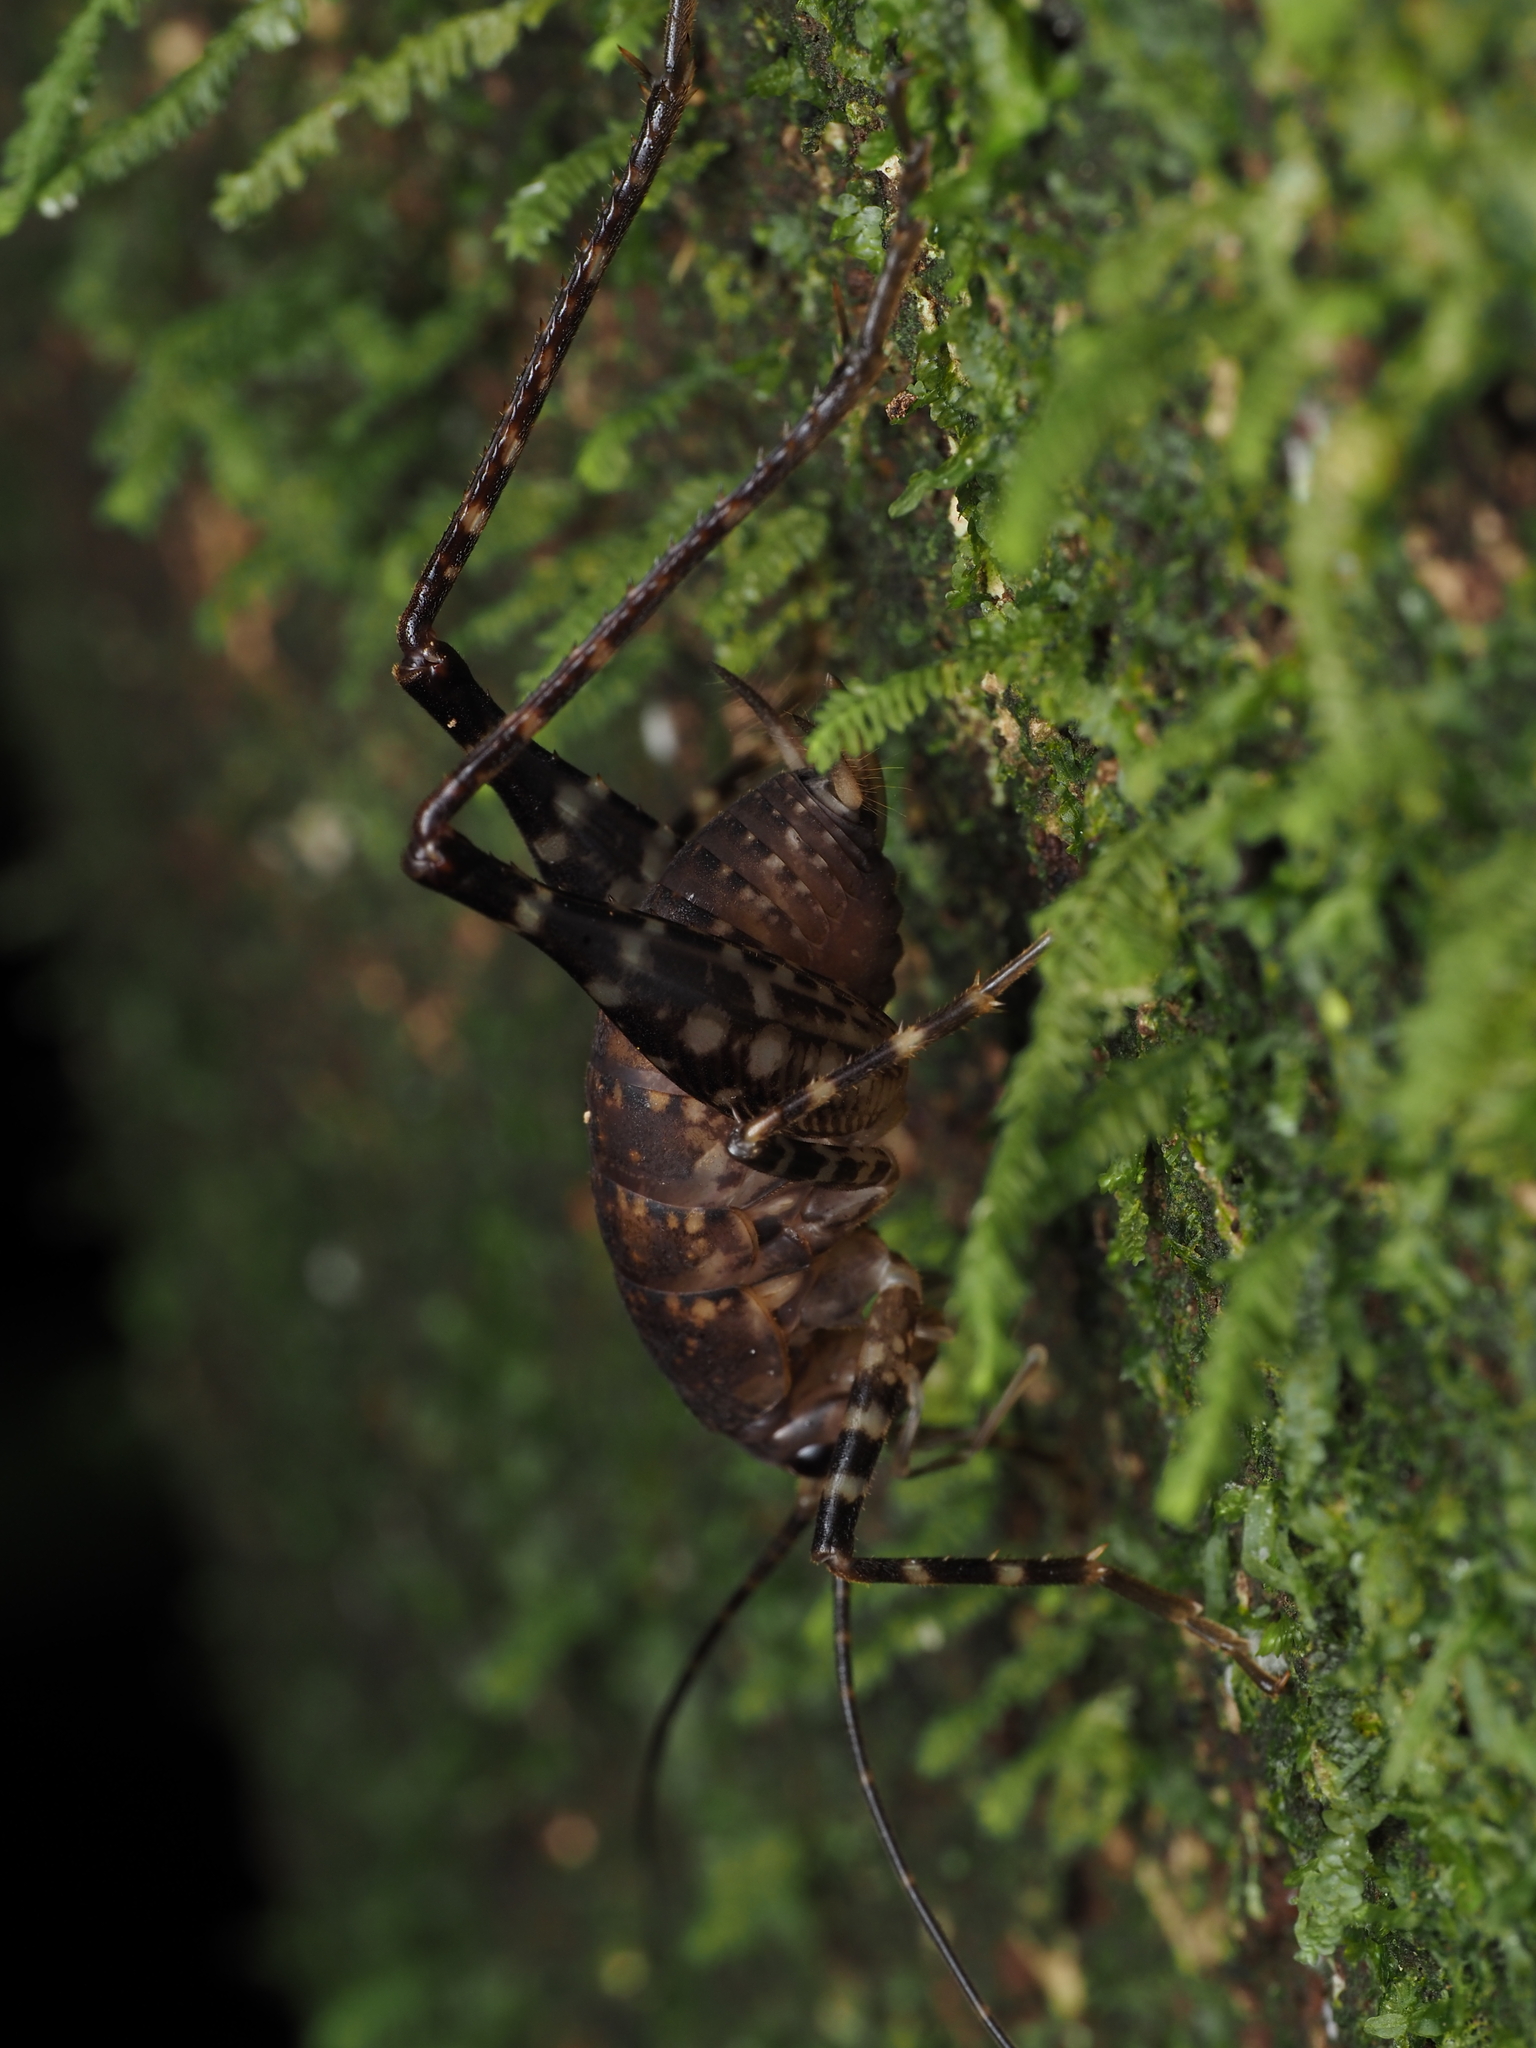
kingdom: Animalia
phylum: Arthropoda
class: Insecta
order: Orthoptera
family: Rhaphidophoridae
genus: Pachyrhamma
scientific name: Pachyrhamma longicauda
